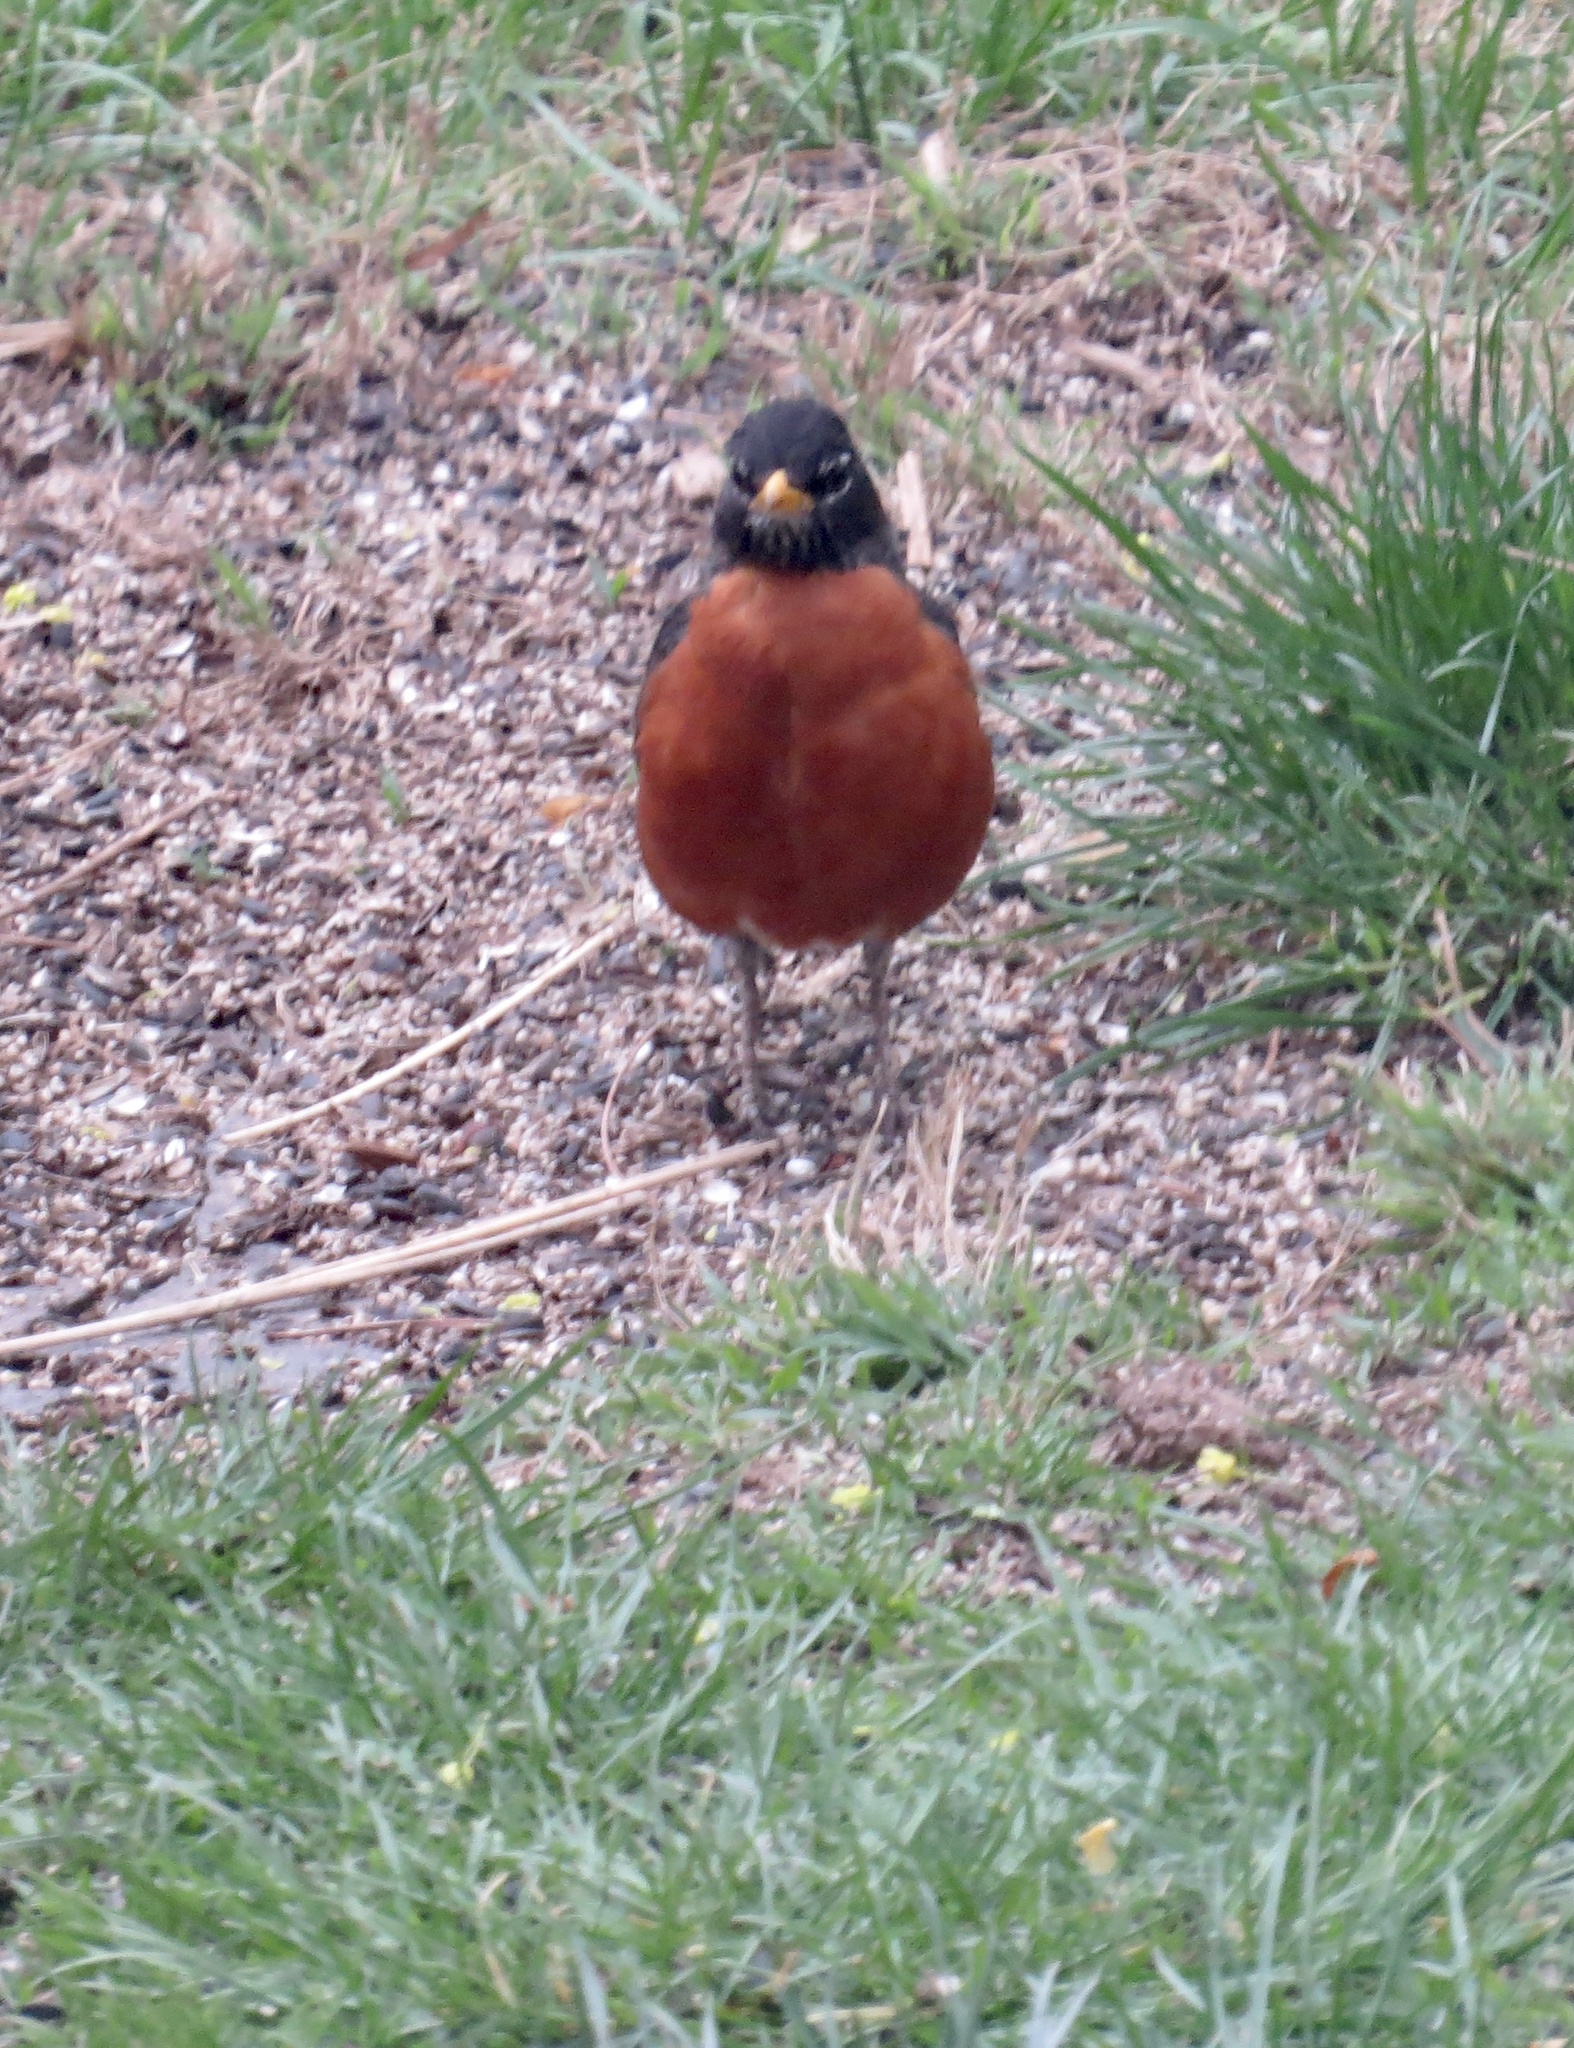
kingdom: Animalia
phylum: Chordata
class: Aves
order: Passeriformes
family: Turdidae
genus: Turdus
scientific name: Turdus migratorius
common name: American robin
